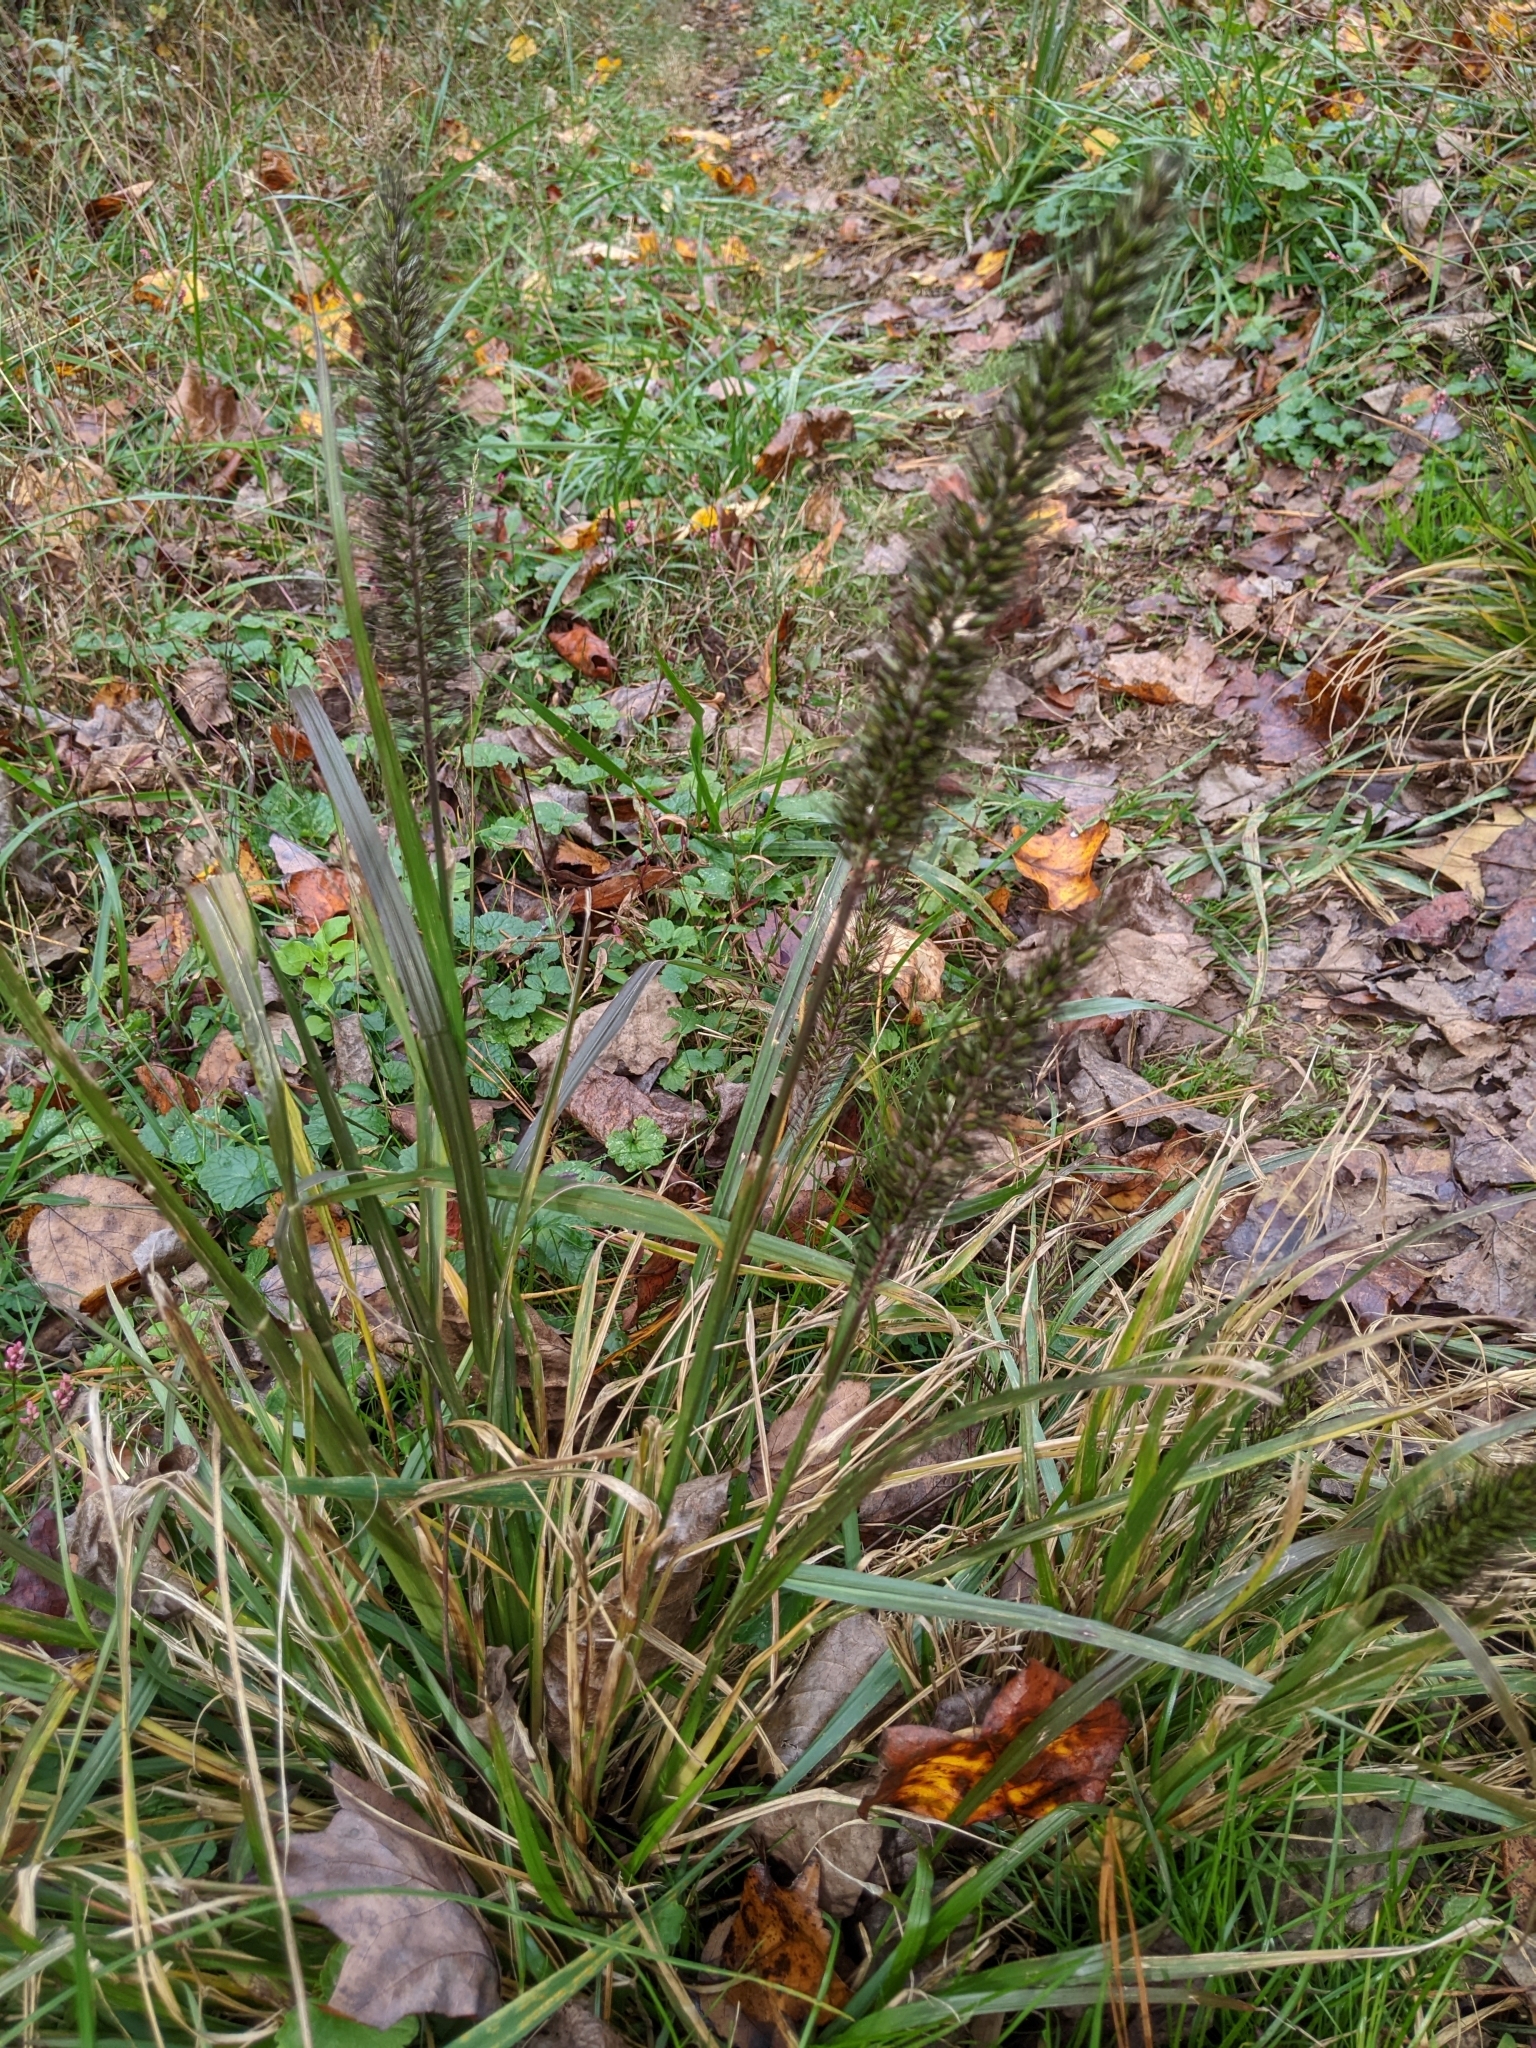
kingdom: Plantae
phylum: Tracheophyta
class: Liliopsida
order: Poales
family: Poaceae
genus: Cenchrus
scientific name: Cenchrus alopecuroides
